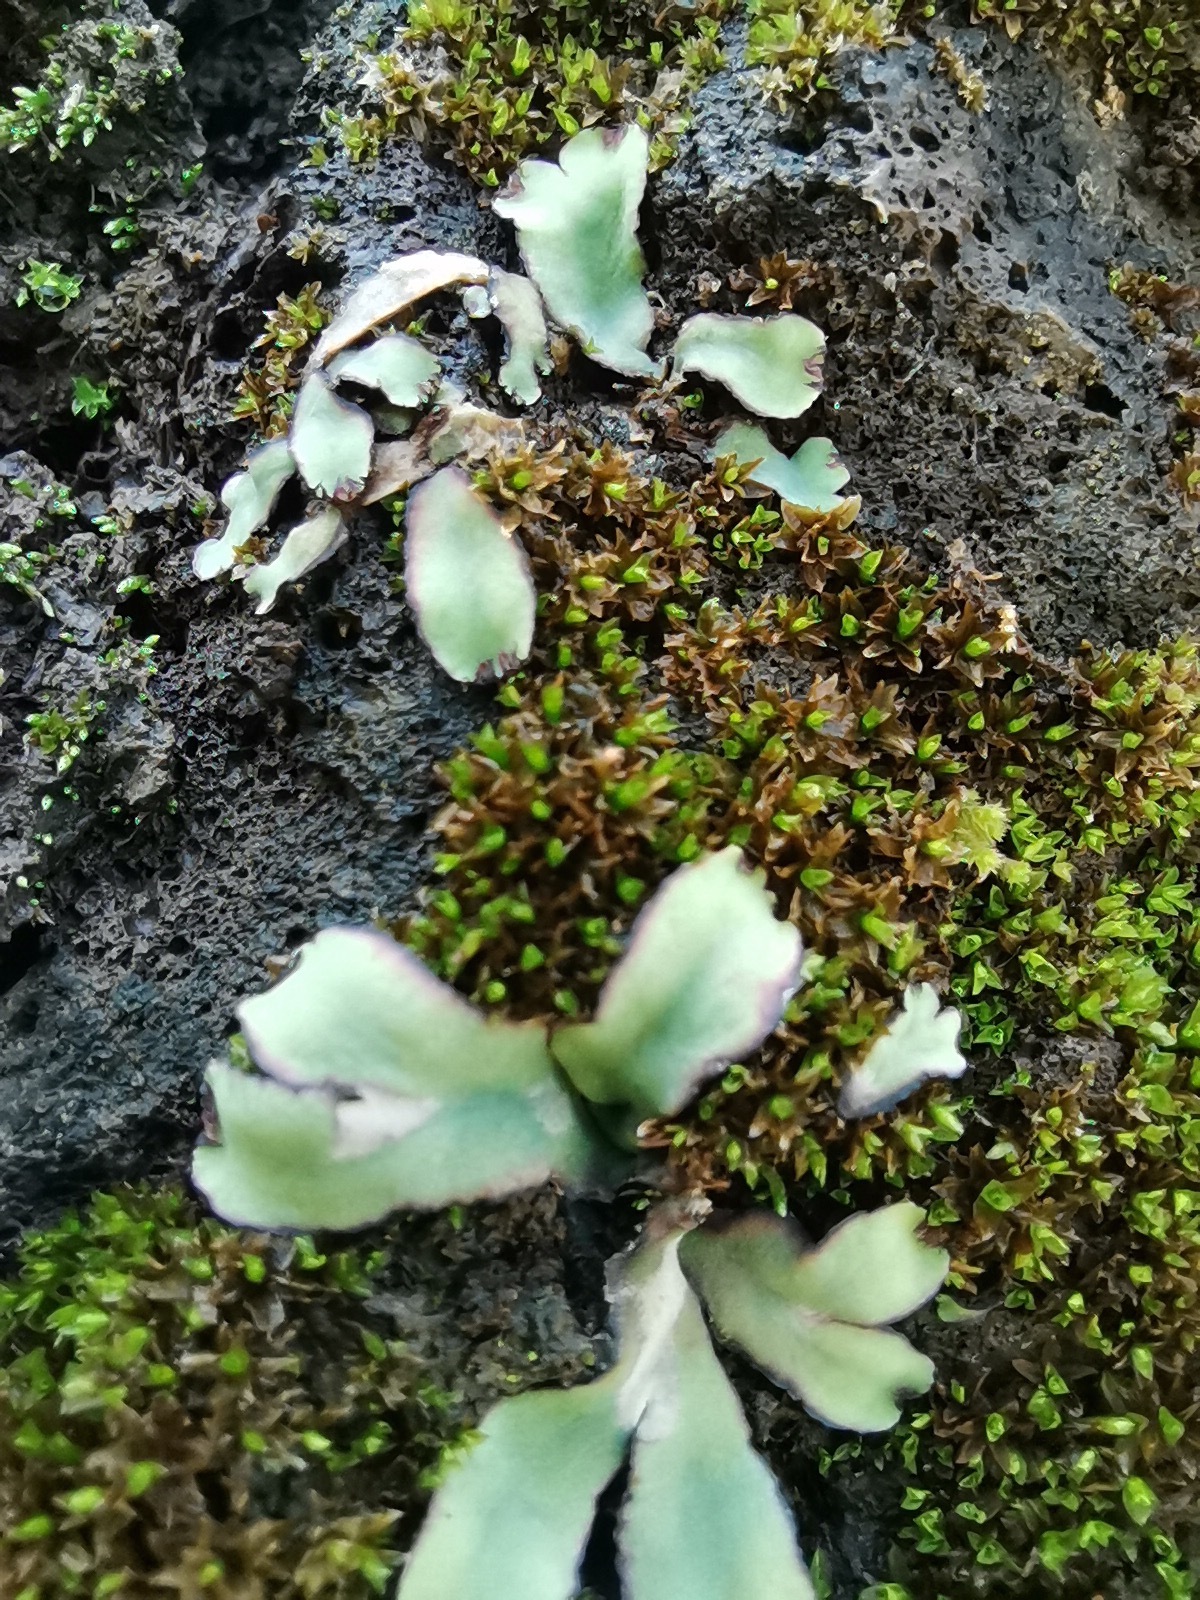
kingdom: Plantae
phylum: Marchantiophyta
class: Marchantiopsida
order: Marchantiales
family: Aytoniaceae
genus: Plagiochasma
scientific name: Plagiochasma rupestre
